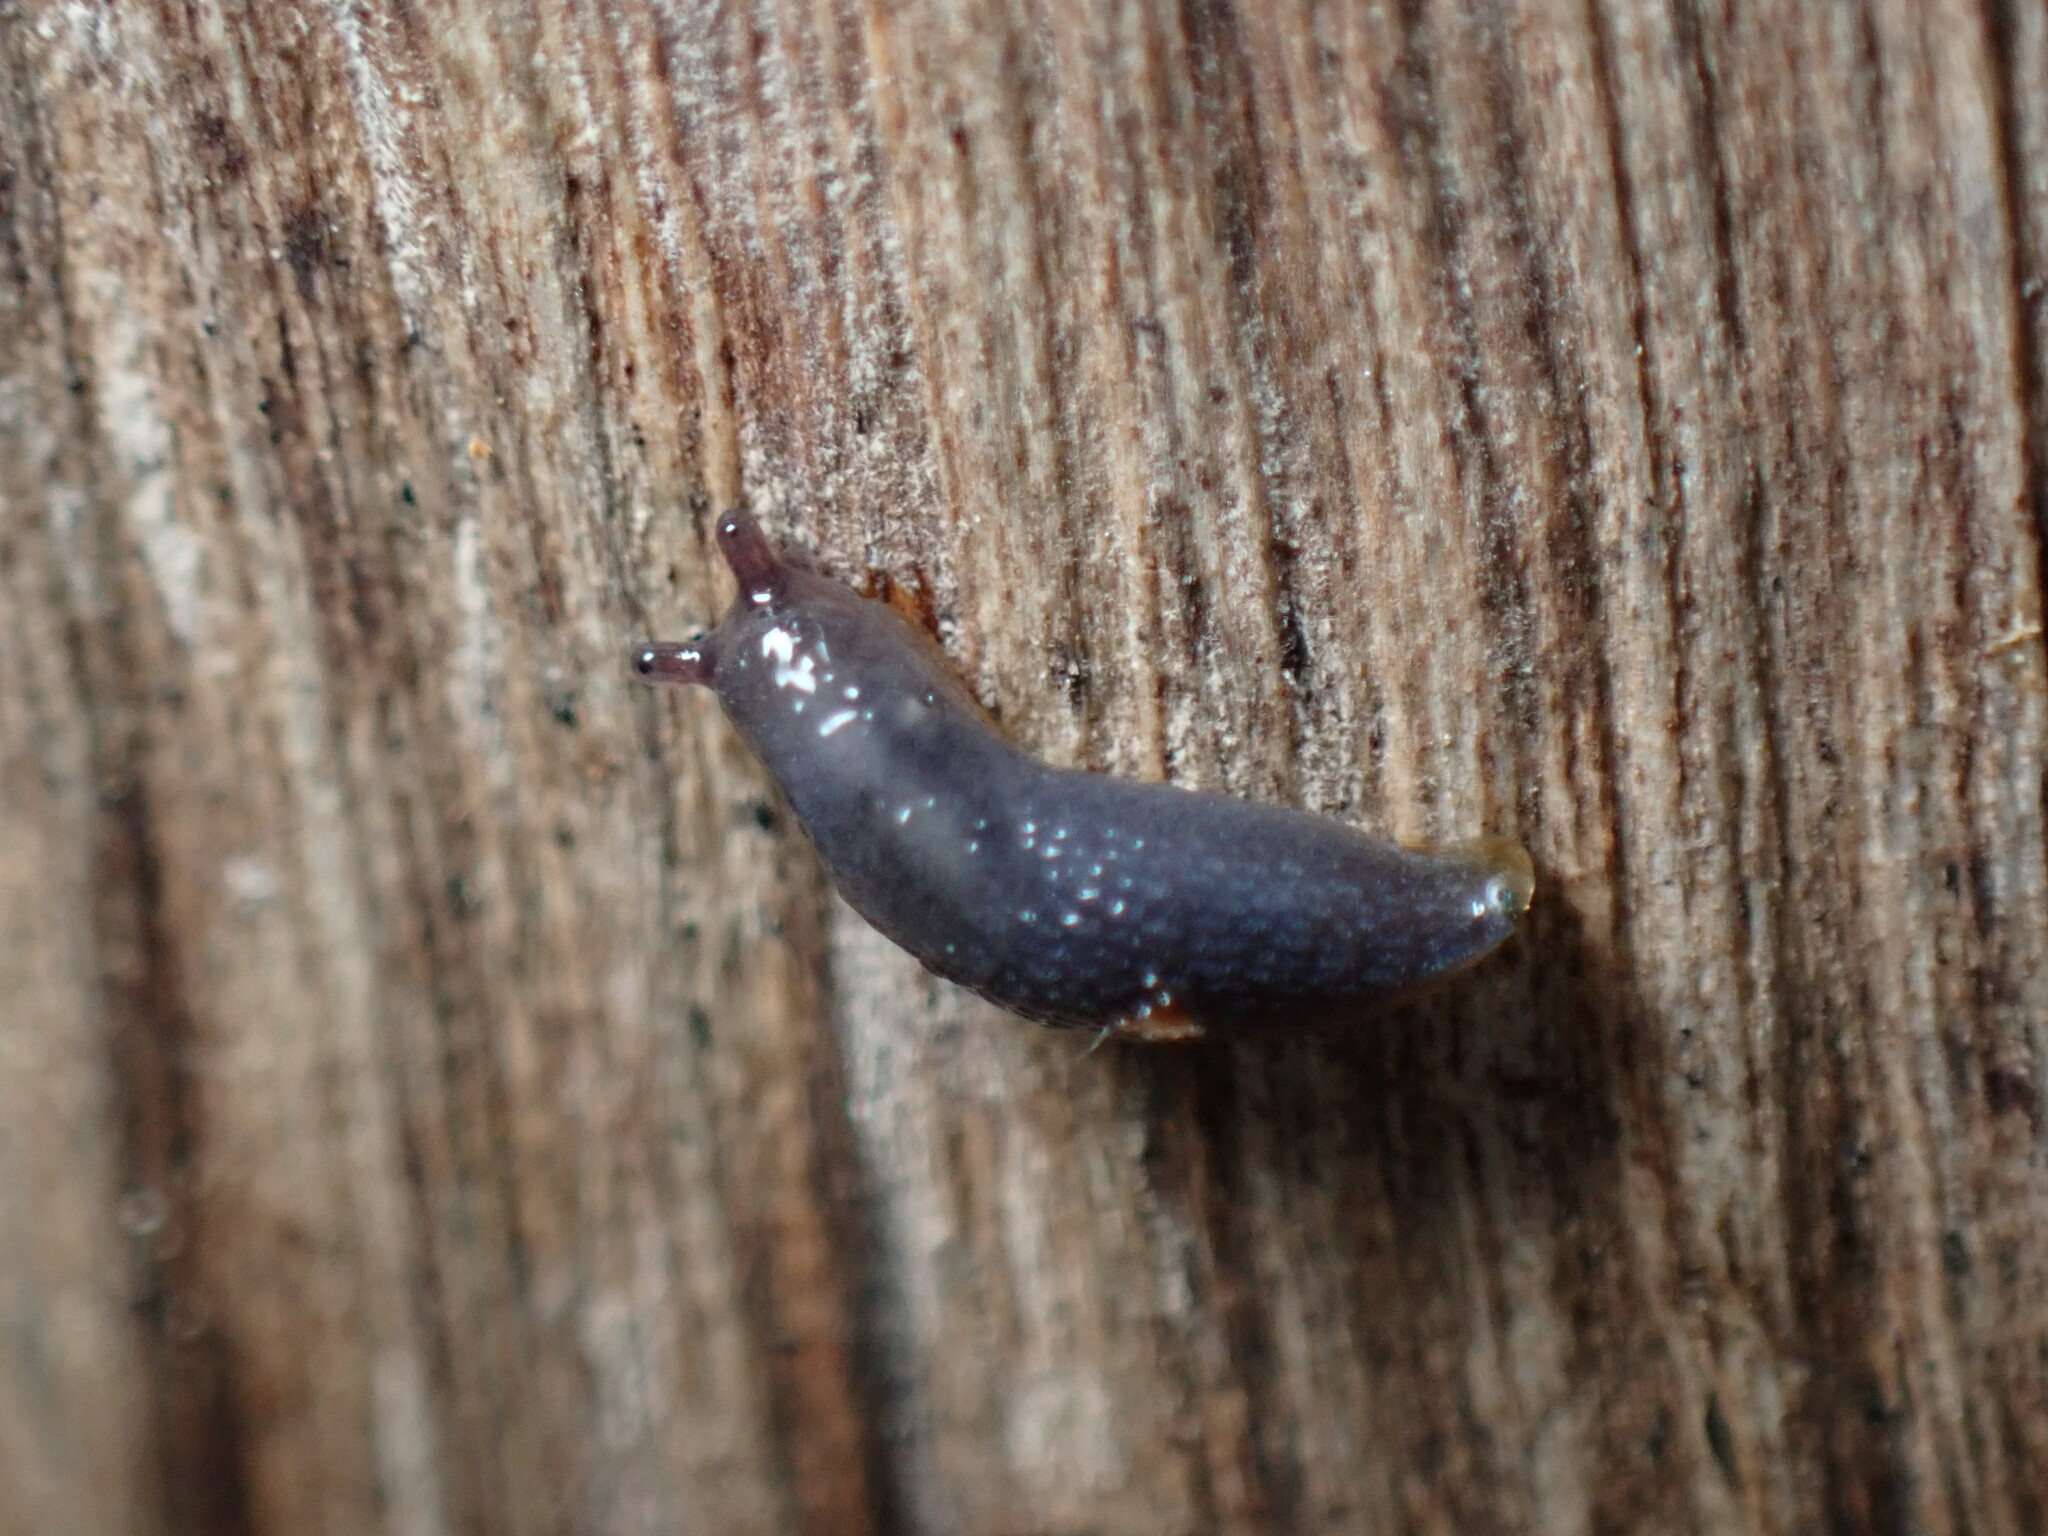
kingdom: Animalia
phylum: Mollusca
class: Gastropoda
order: Stylommatophora
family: Arionidae
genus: Arion
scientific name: Arion intermedius
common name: Hedgehog slug
